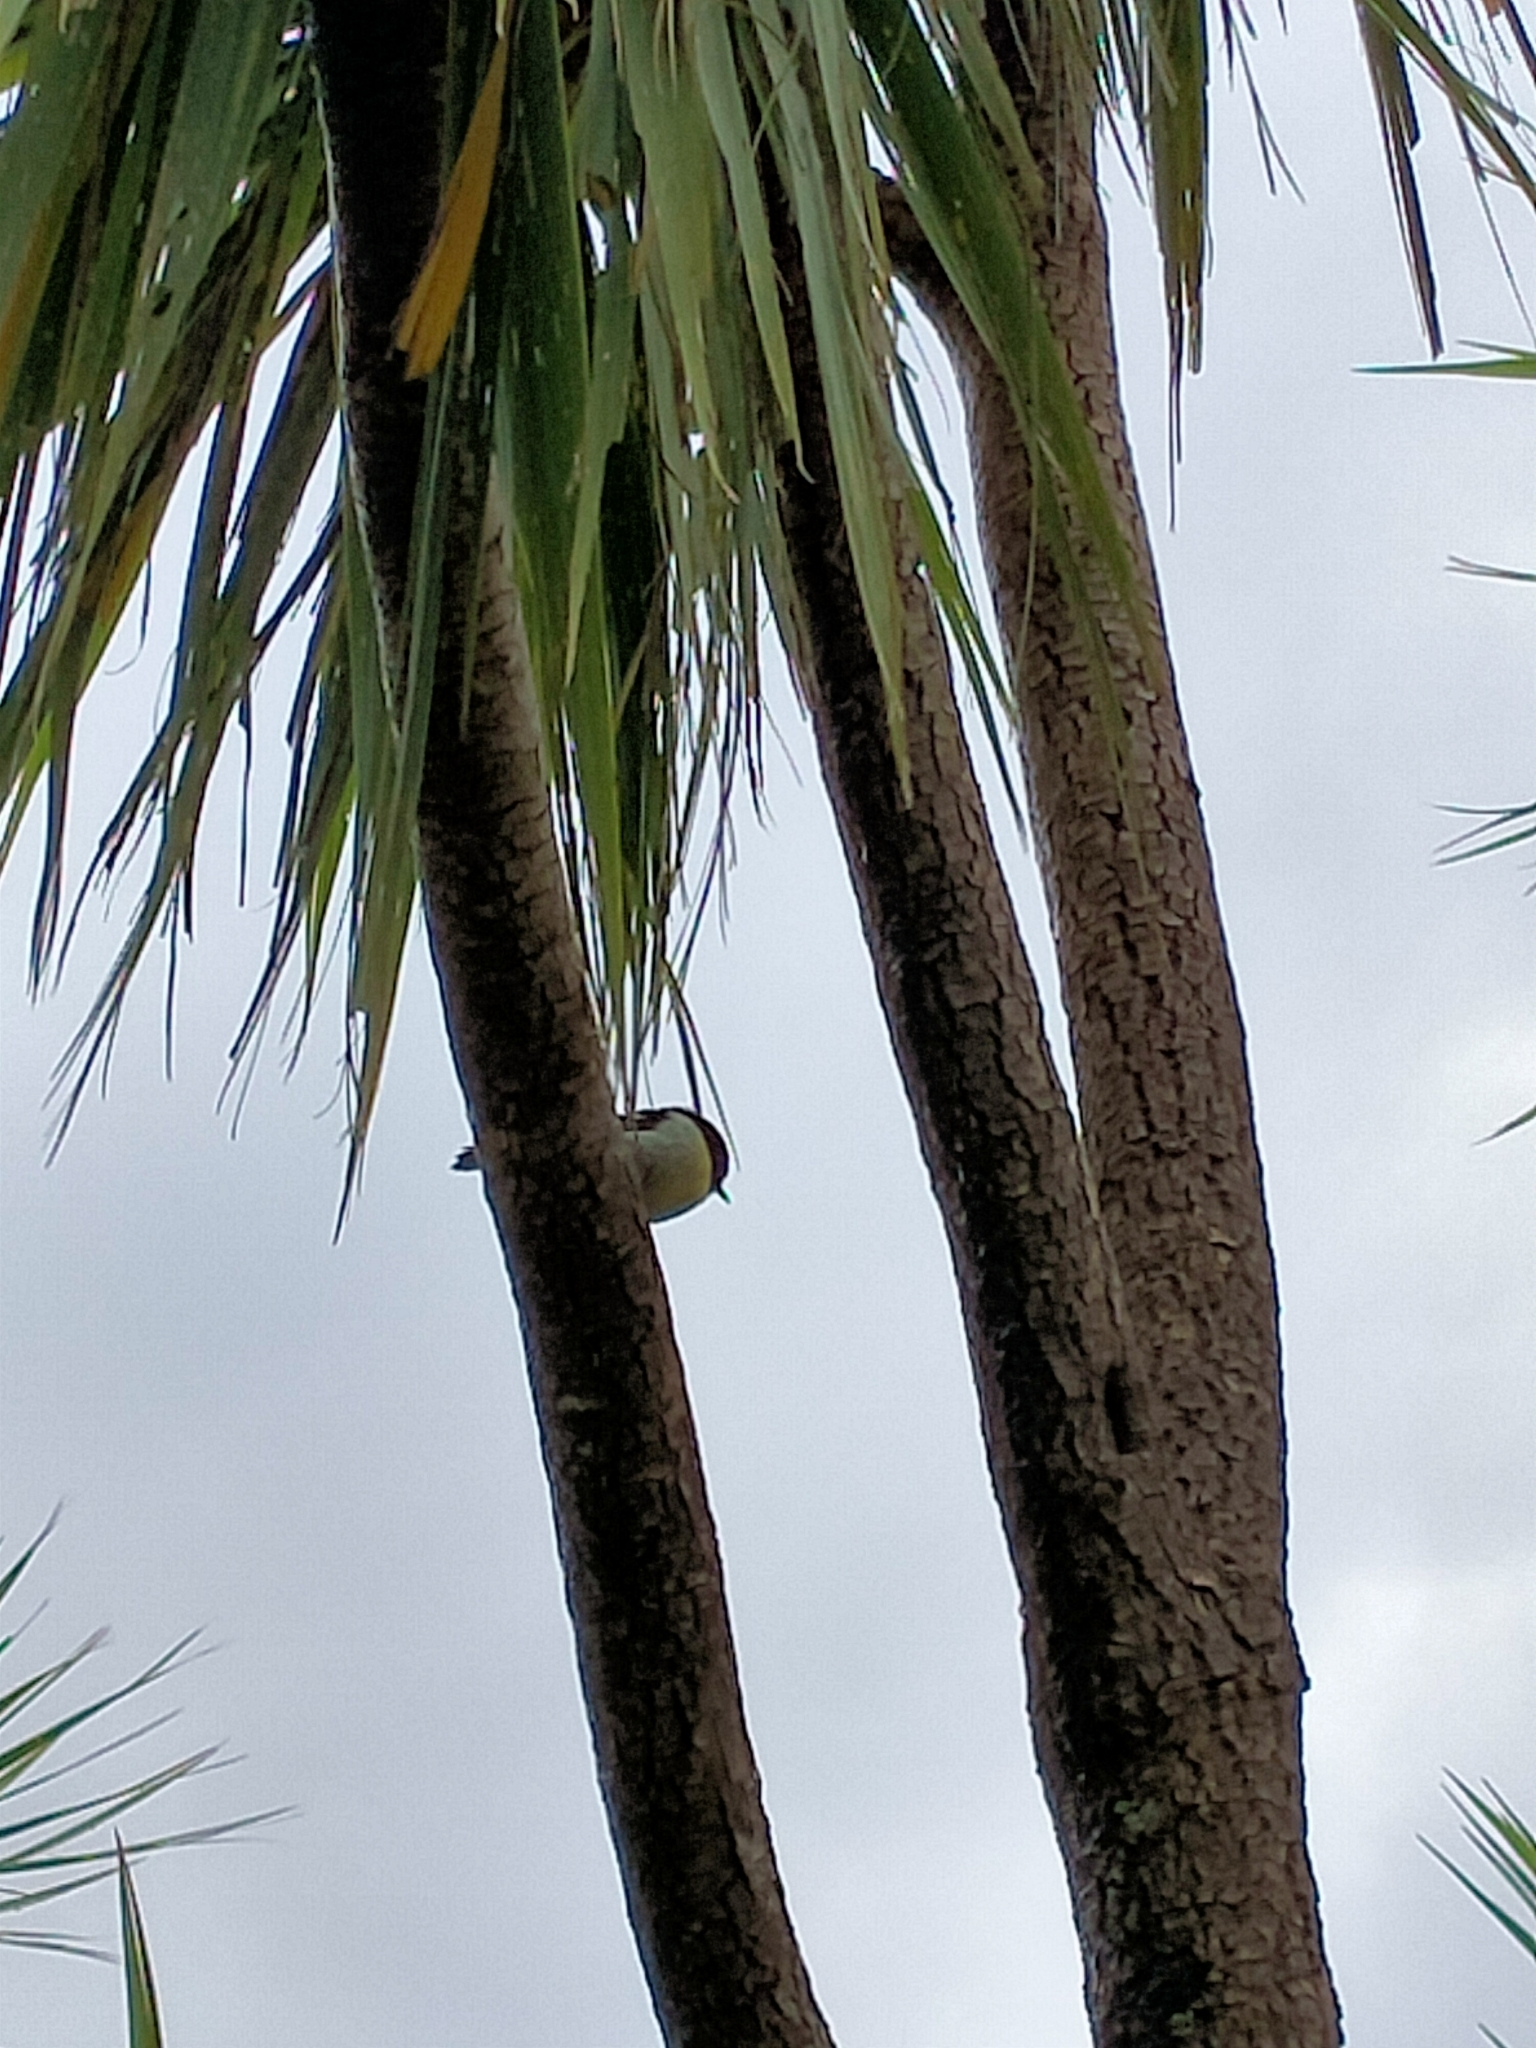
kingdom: Animalia
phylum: Chordata
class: Aves
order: Passeriformes
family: Petroicidae
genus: Petroica
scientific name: Petroica macrocephala
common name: Tomtit
